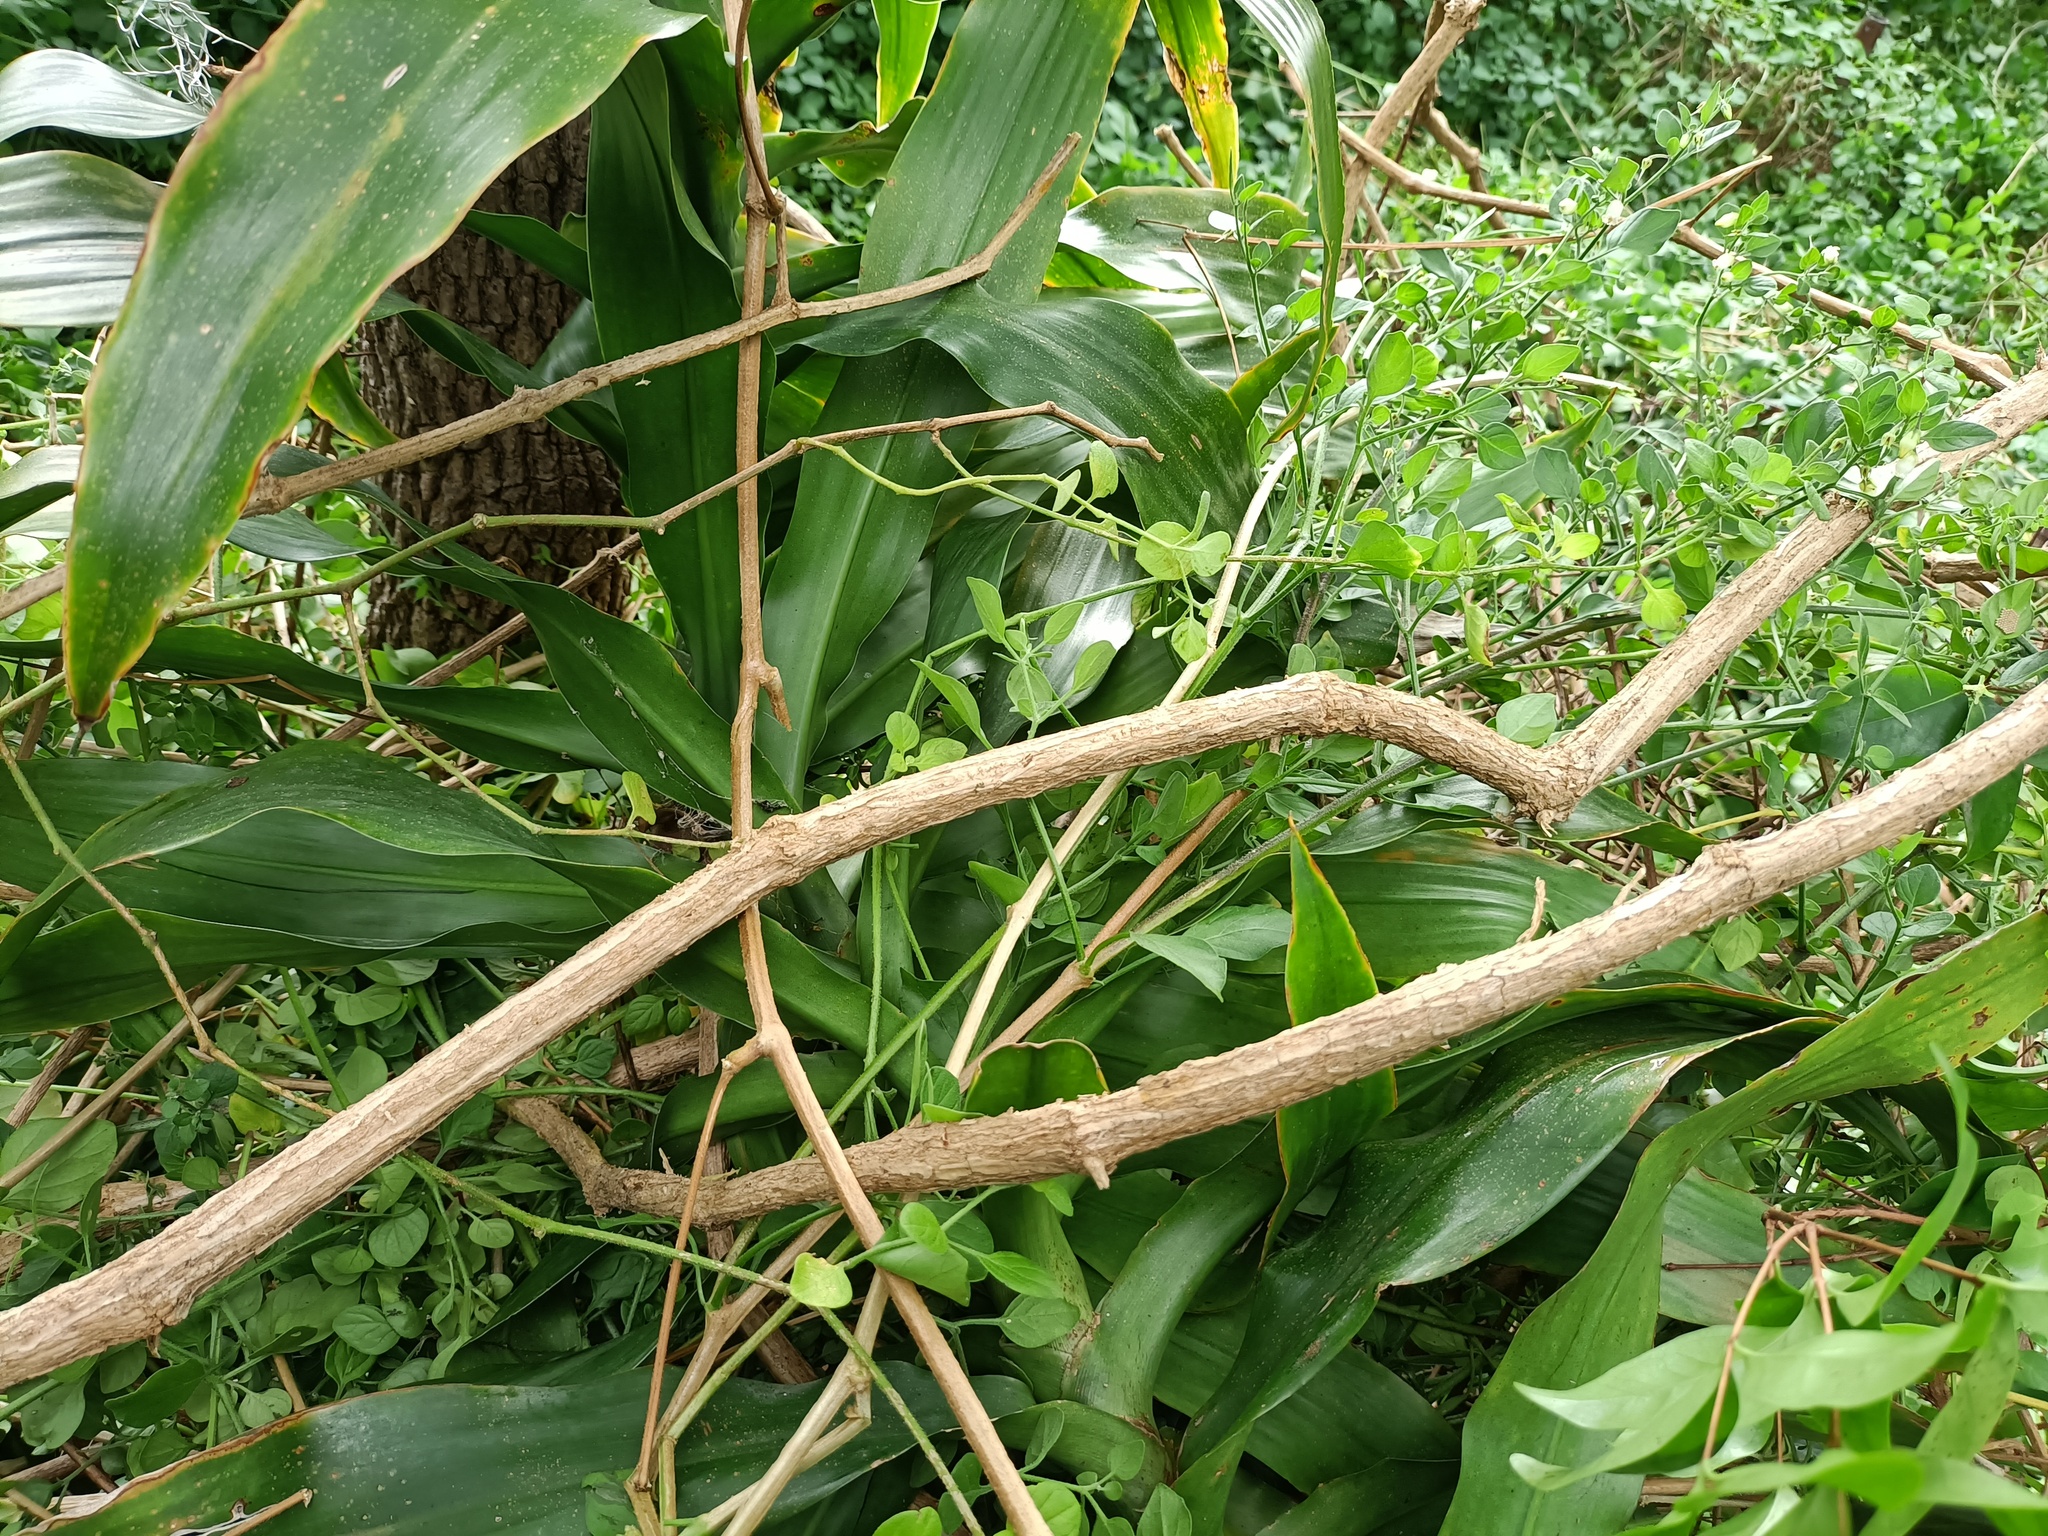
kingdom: Plantae
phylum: Tracheophyta
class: Magnoliopsida
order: Solanales
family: Solanaceae
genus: Salpichroa
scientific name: Salpichroa origanifolia
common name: Lily-of-the-valley-vine
